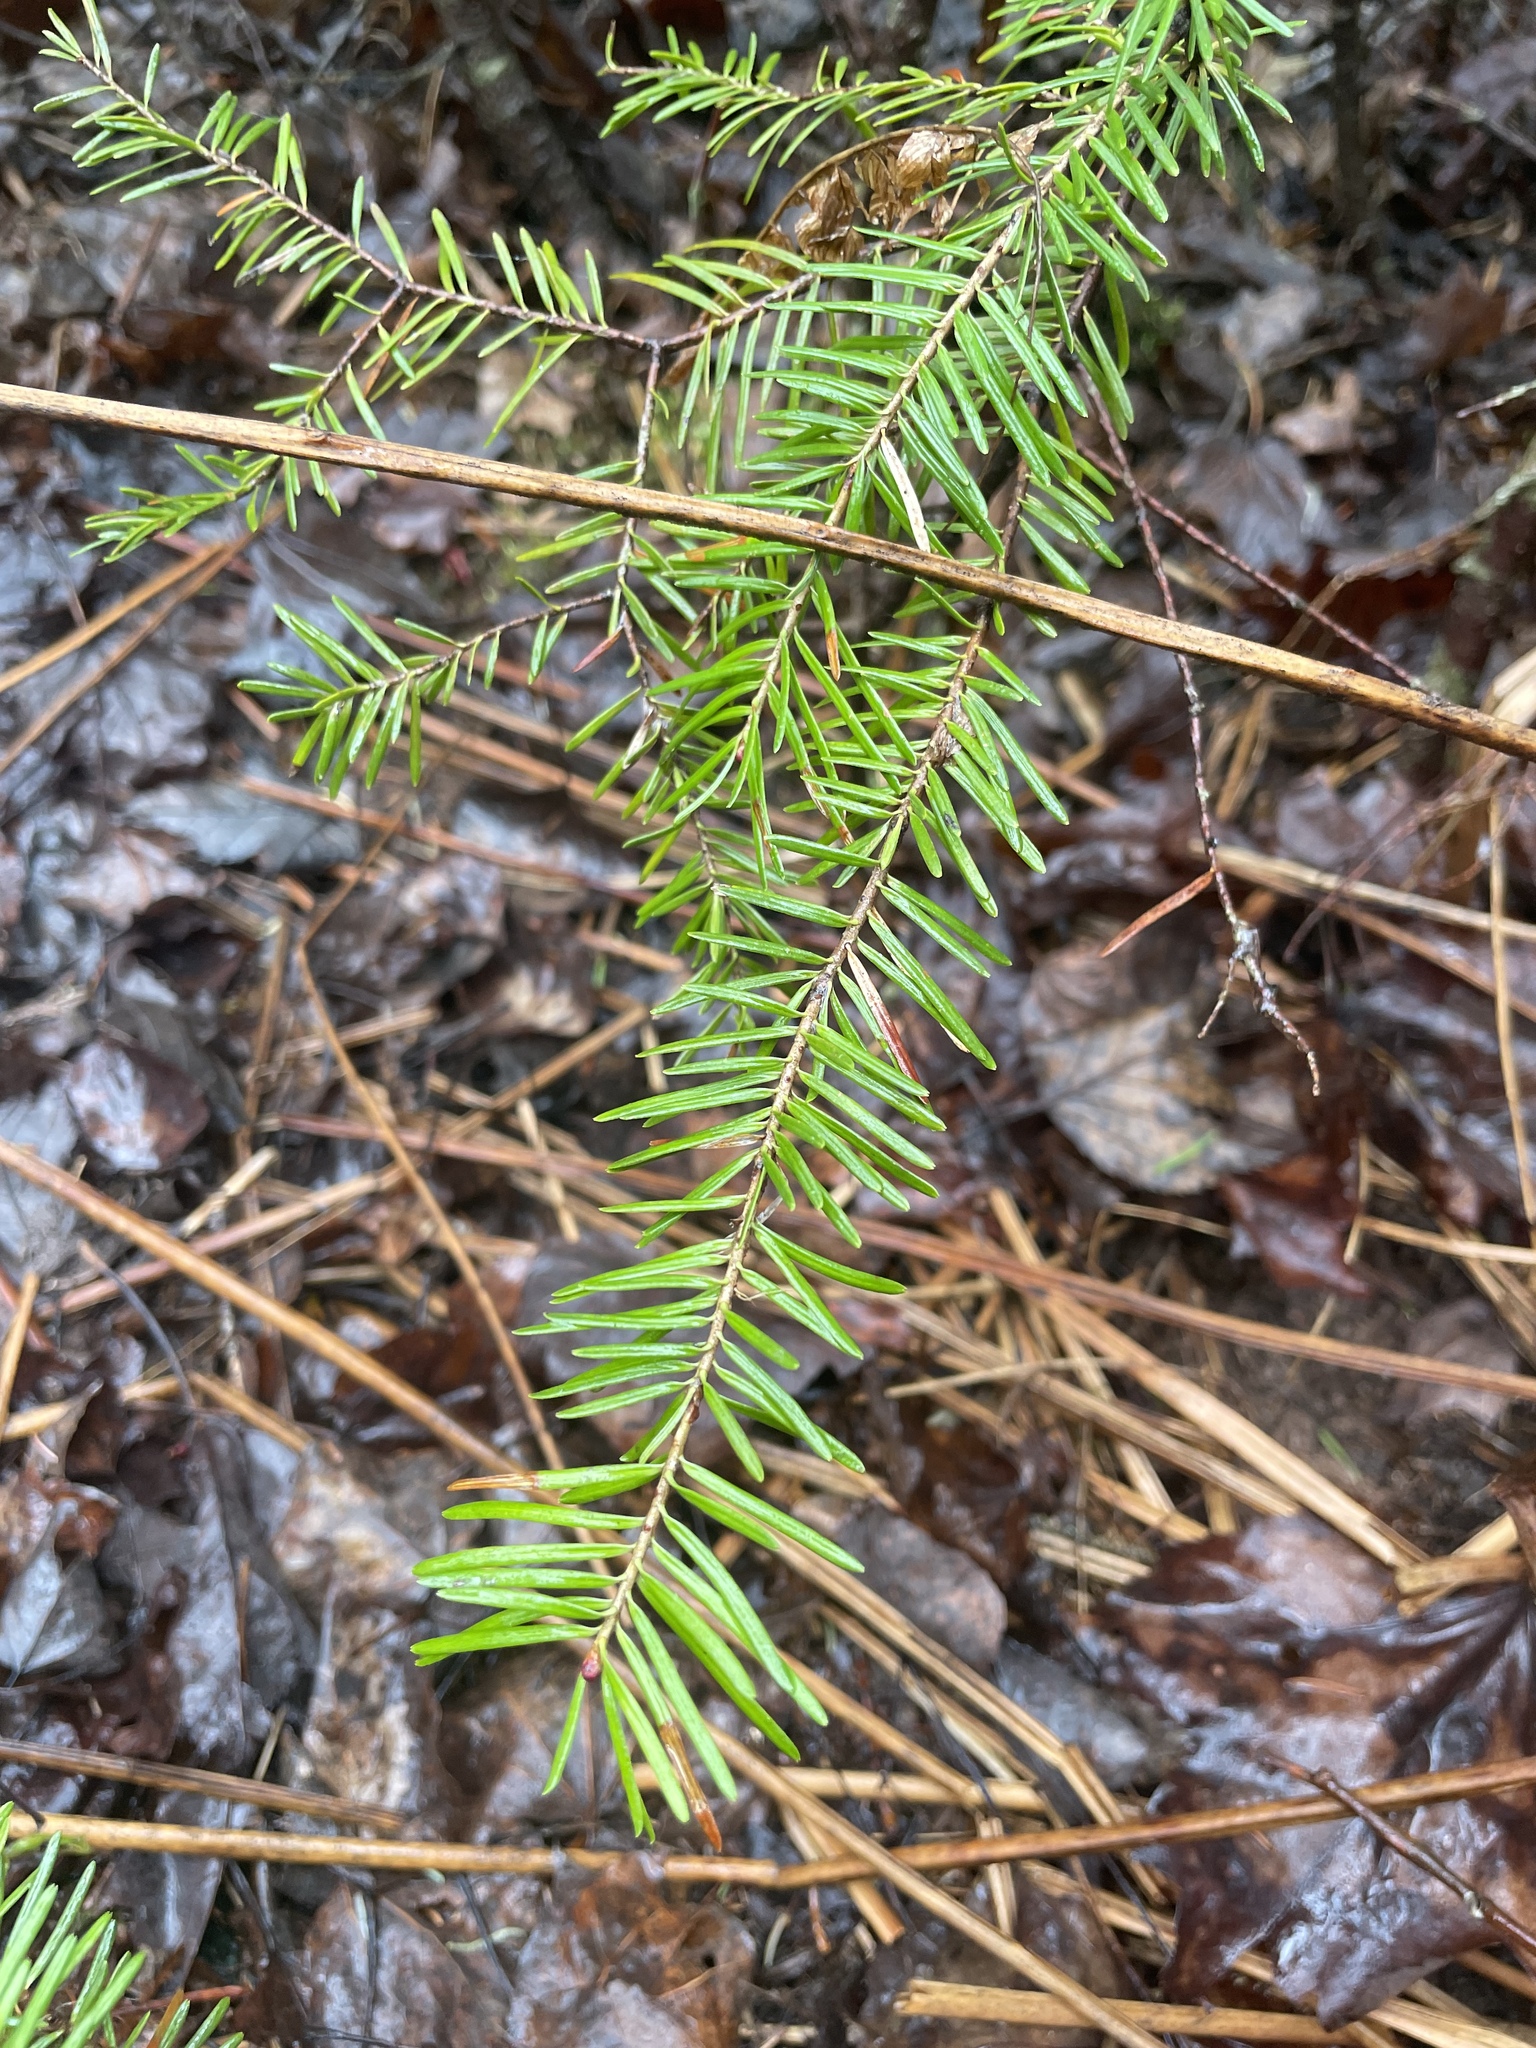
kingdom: Plantae
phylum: Tracheophyta
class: Pinopsida
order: Pinales
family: Pinaceae
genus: Abies
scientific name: Abies balsamea
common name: Balsam fir
